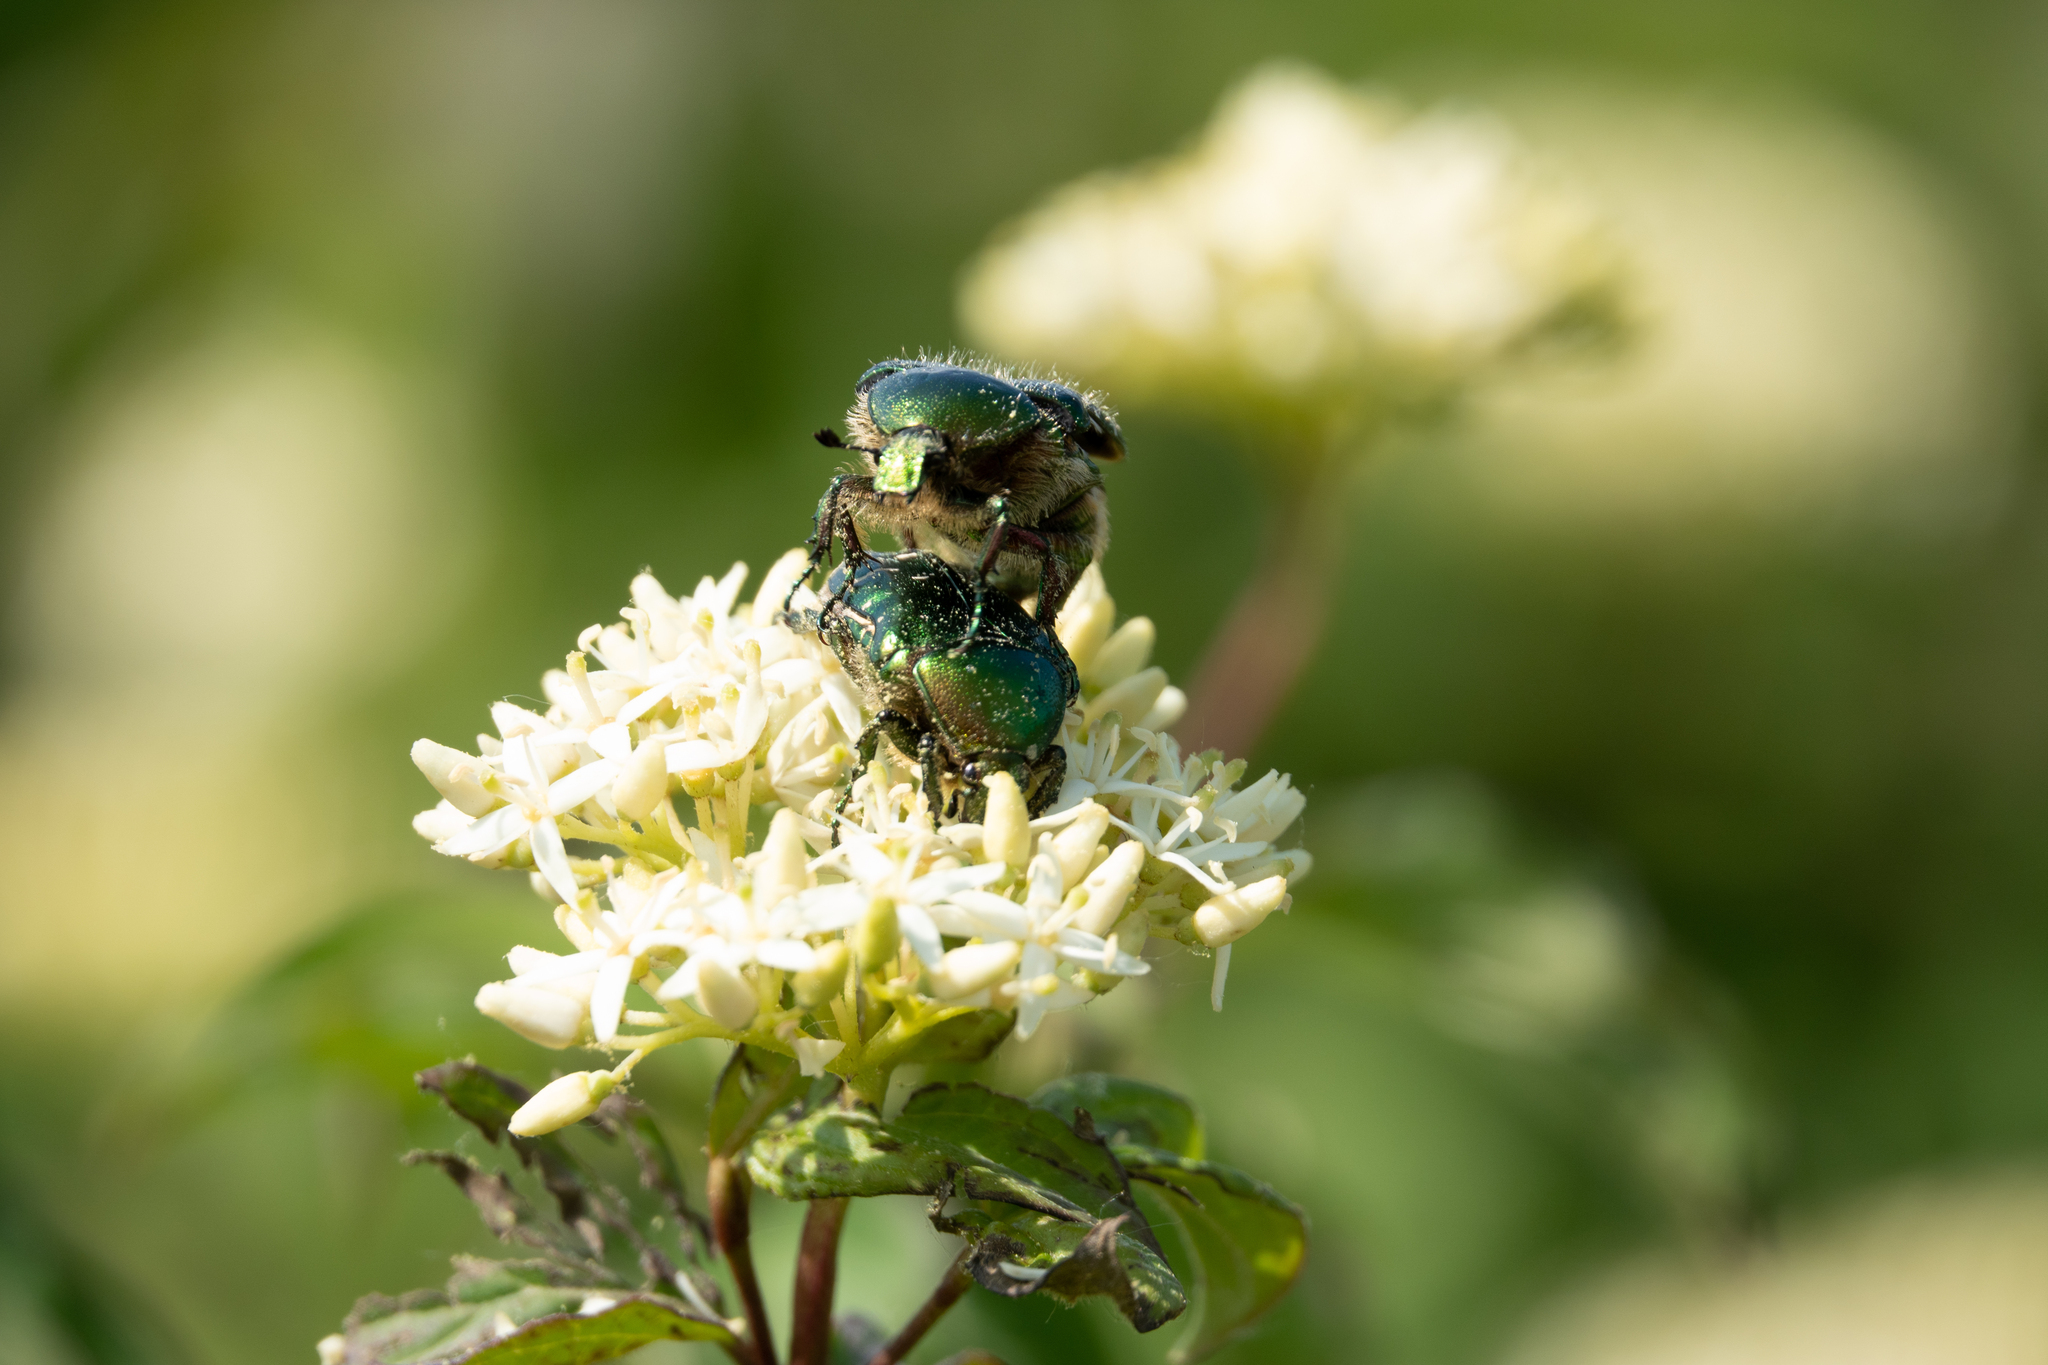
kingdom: Animalia
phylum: Arthropoda
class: Insecta
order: Coleoptera
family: Scarabaeidae
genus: Cetonia
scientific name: Cetonia aurata
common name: Rose chafer
